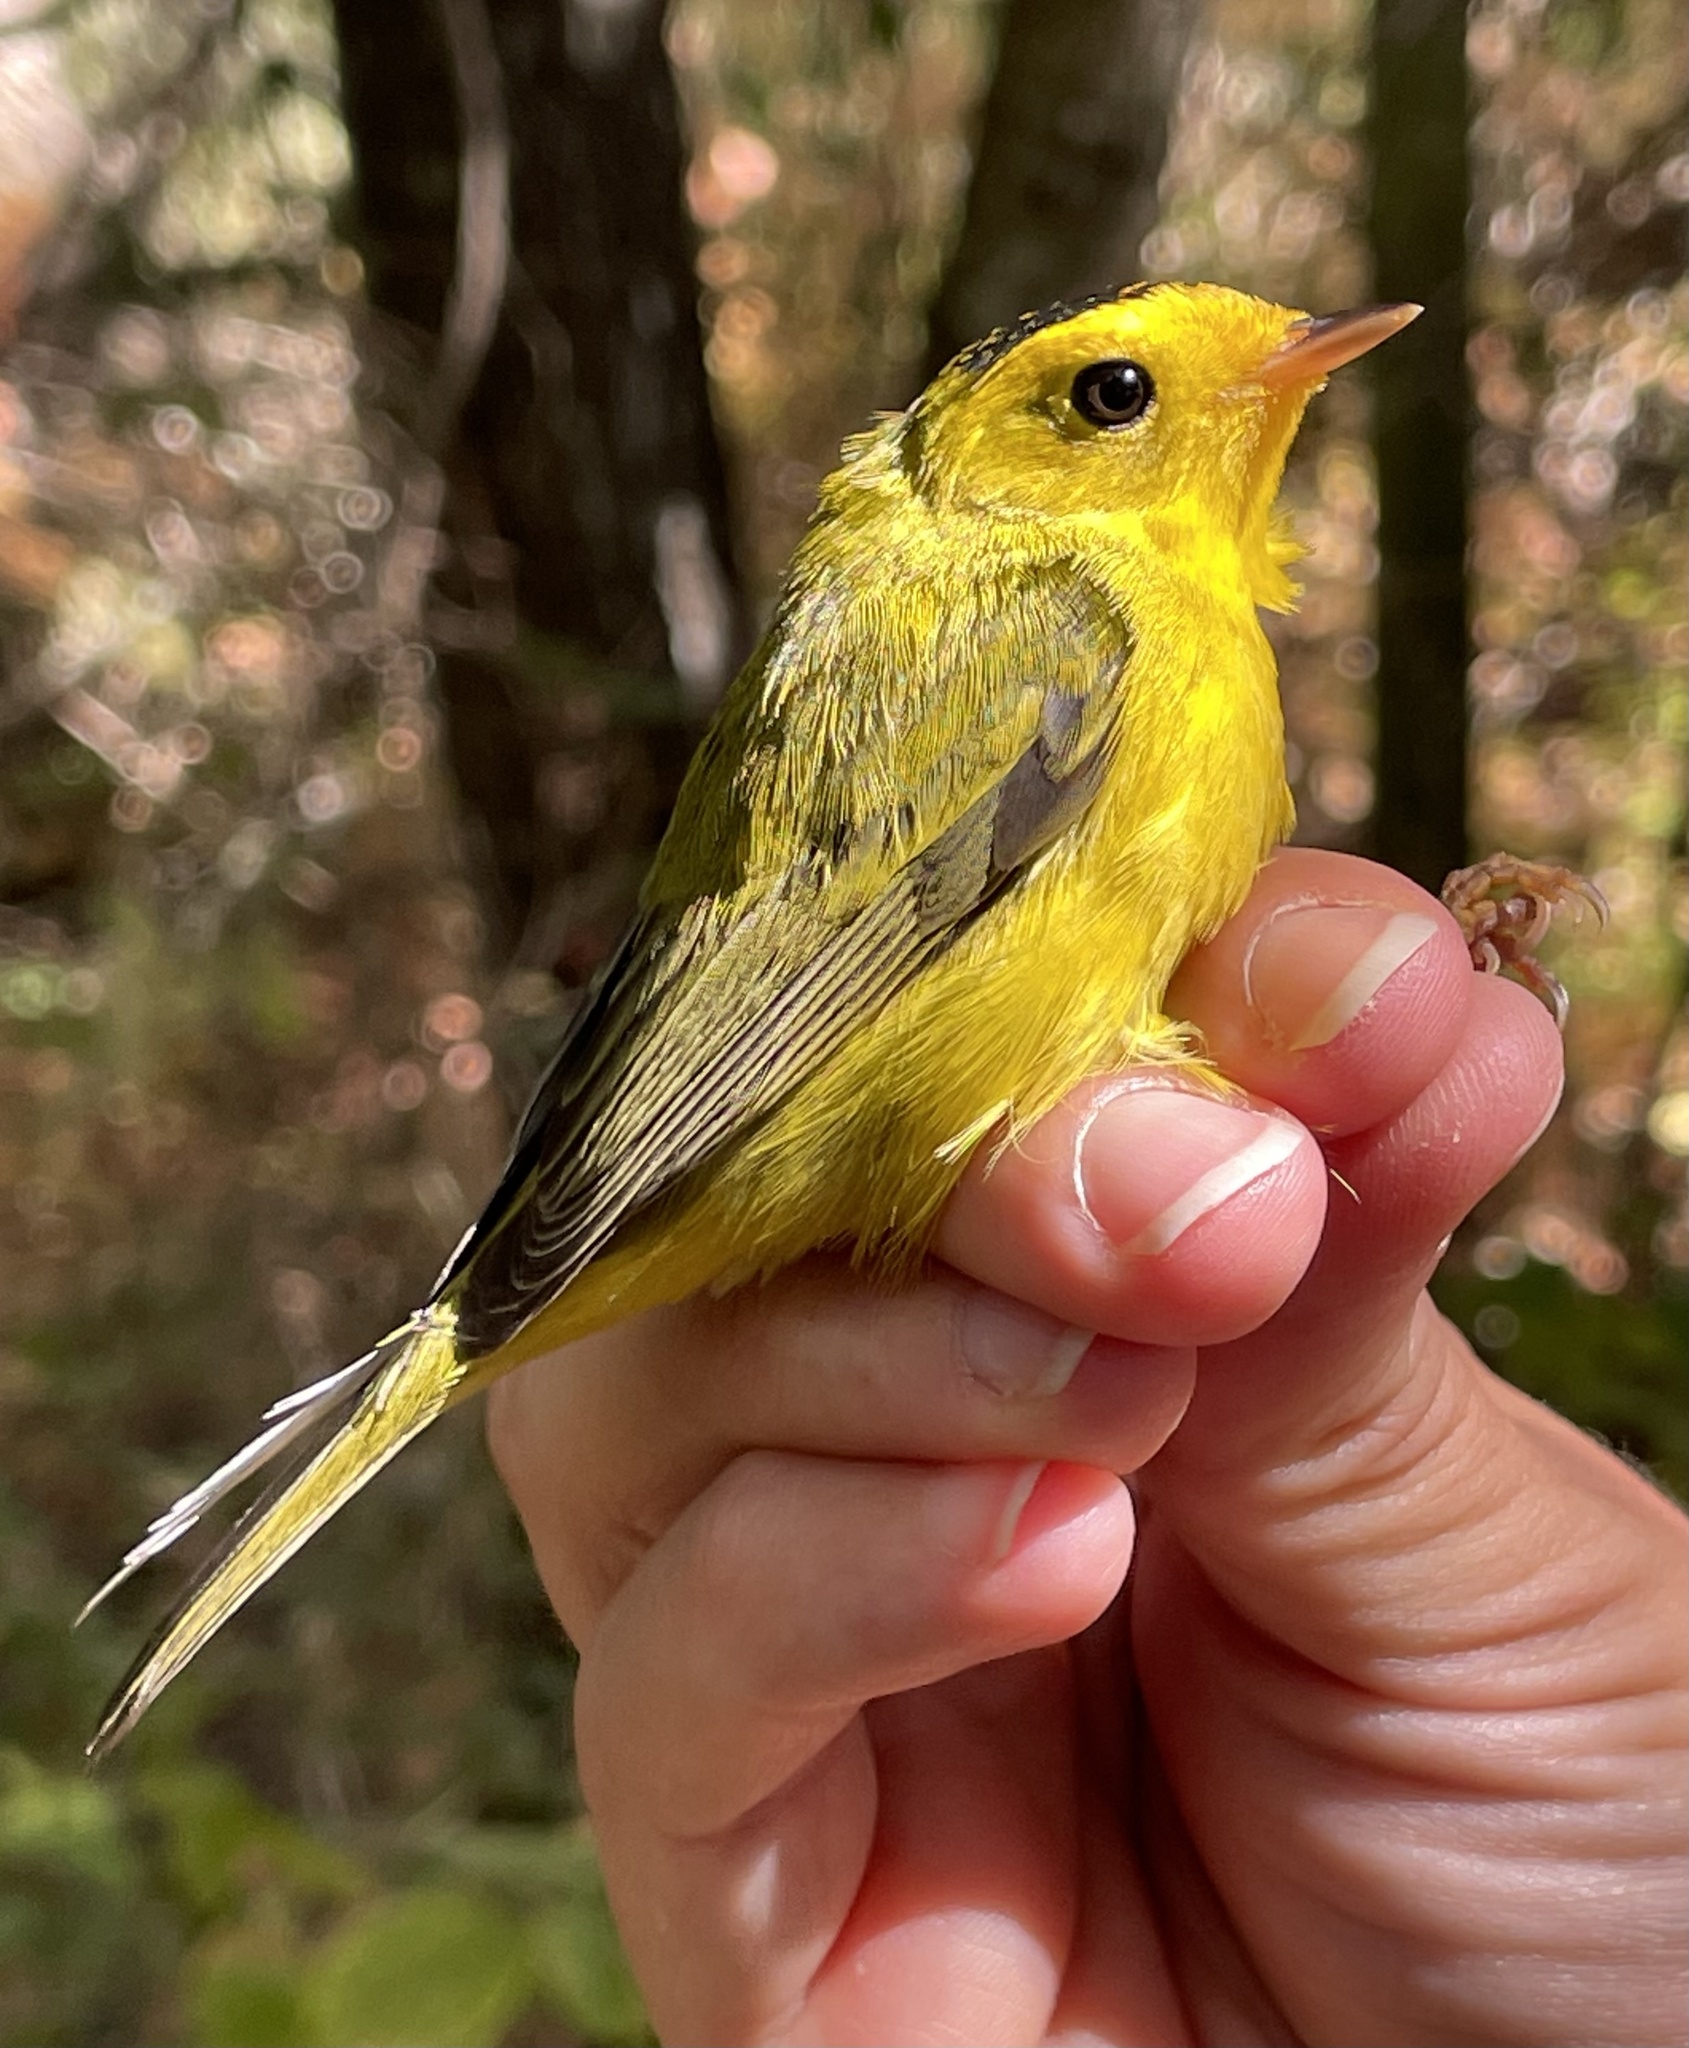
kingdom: Animalia
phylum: Chordata
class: Aves
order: Passeriformes
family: Parulidae
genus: Cardellina
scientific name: Cardellina pusilla
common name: Wilson's warbler
